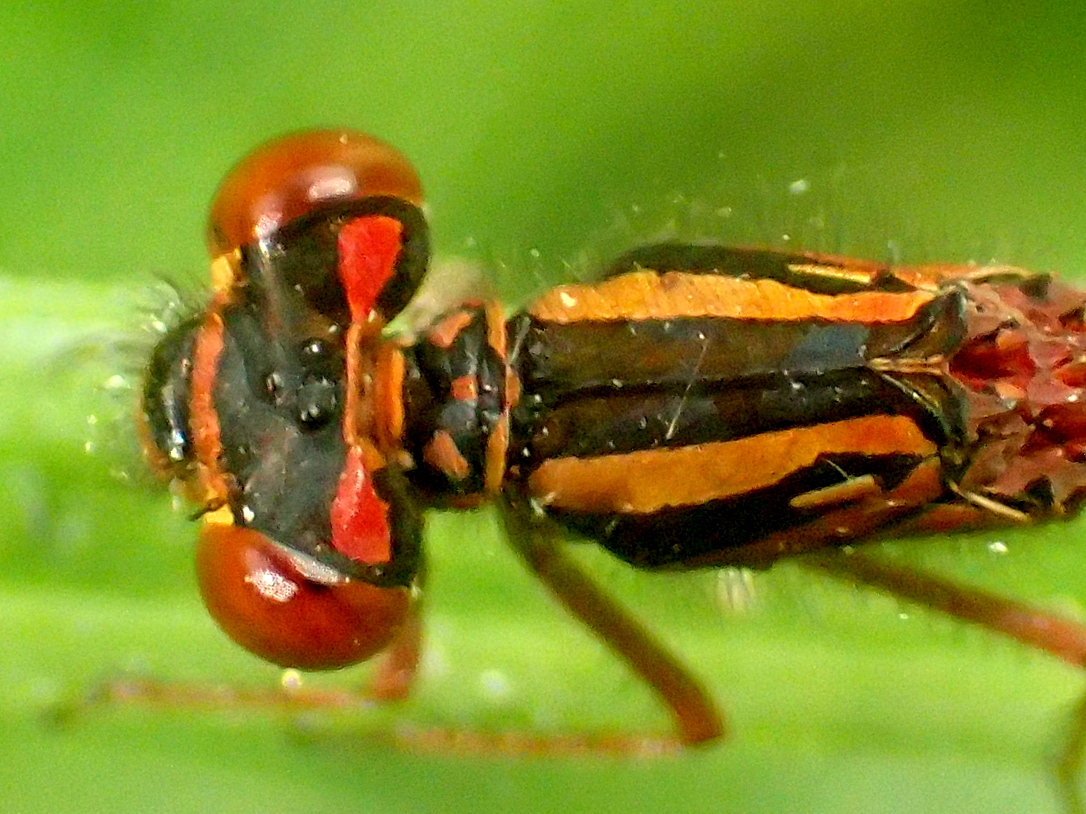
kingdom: Animalia
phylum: Arthropoda
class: Insecta
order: Odonata
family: Coenagrionidae
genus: Xanthocnemis
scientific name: Xanthocnemis zealandica
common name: Common redcoat damselfly
